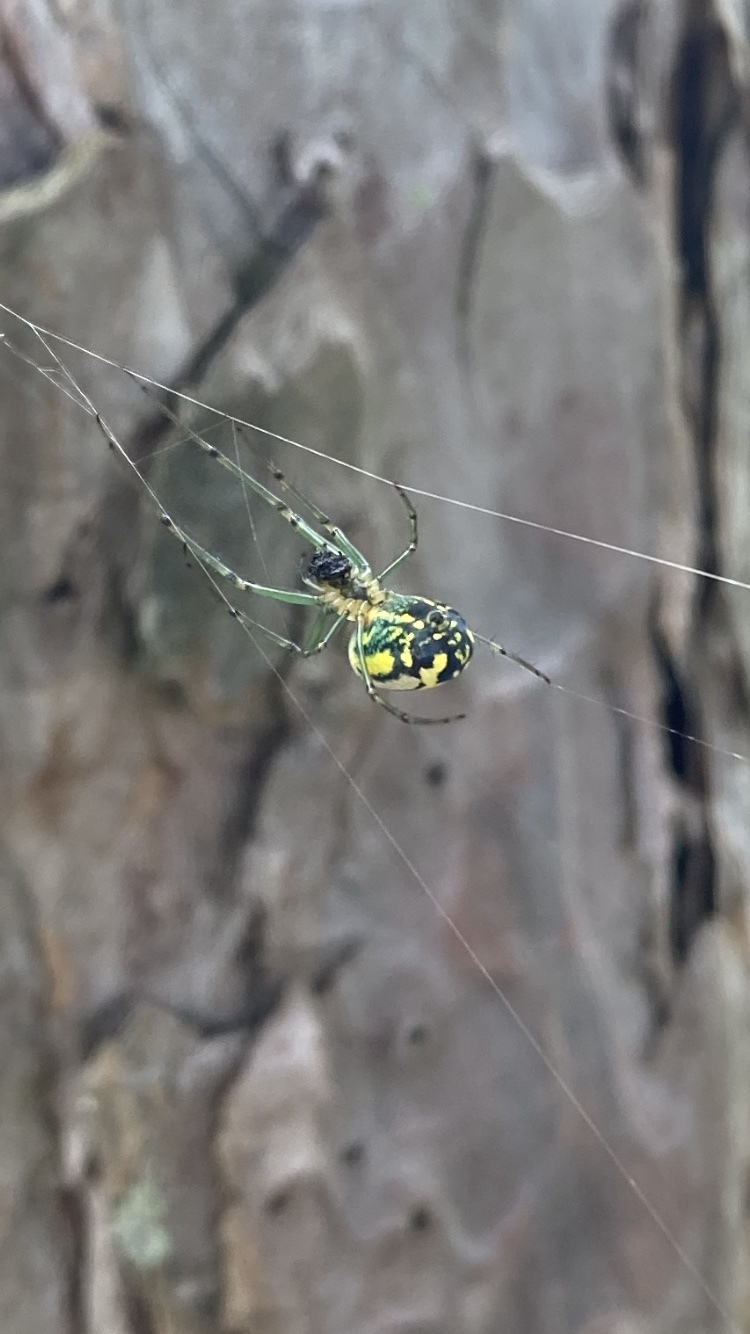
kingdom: Animalia
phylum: Arthropoda
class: Arachnida
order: Araneae
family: Tetragnathidae
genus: Leucauge
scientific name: Leucauge venusta
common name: Longjawed orb weavers
